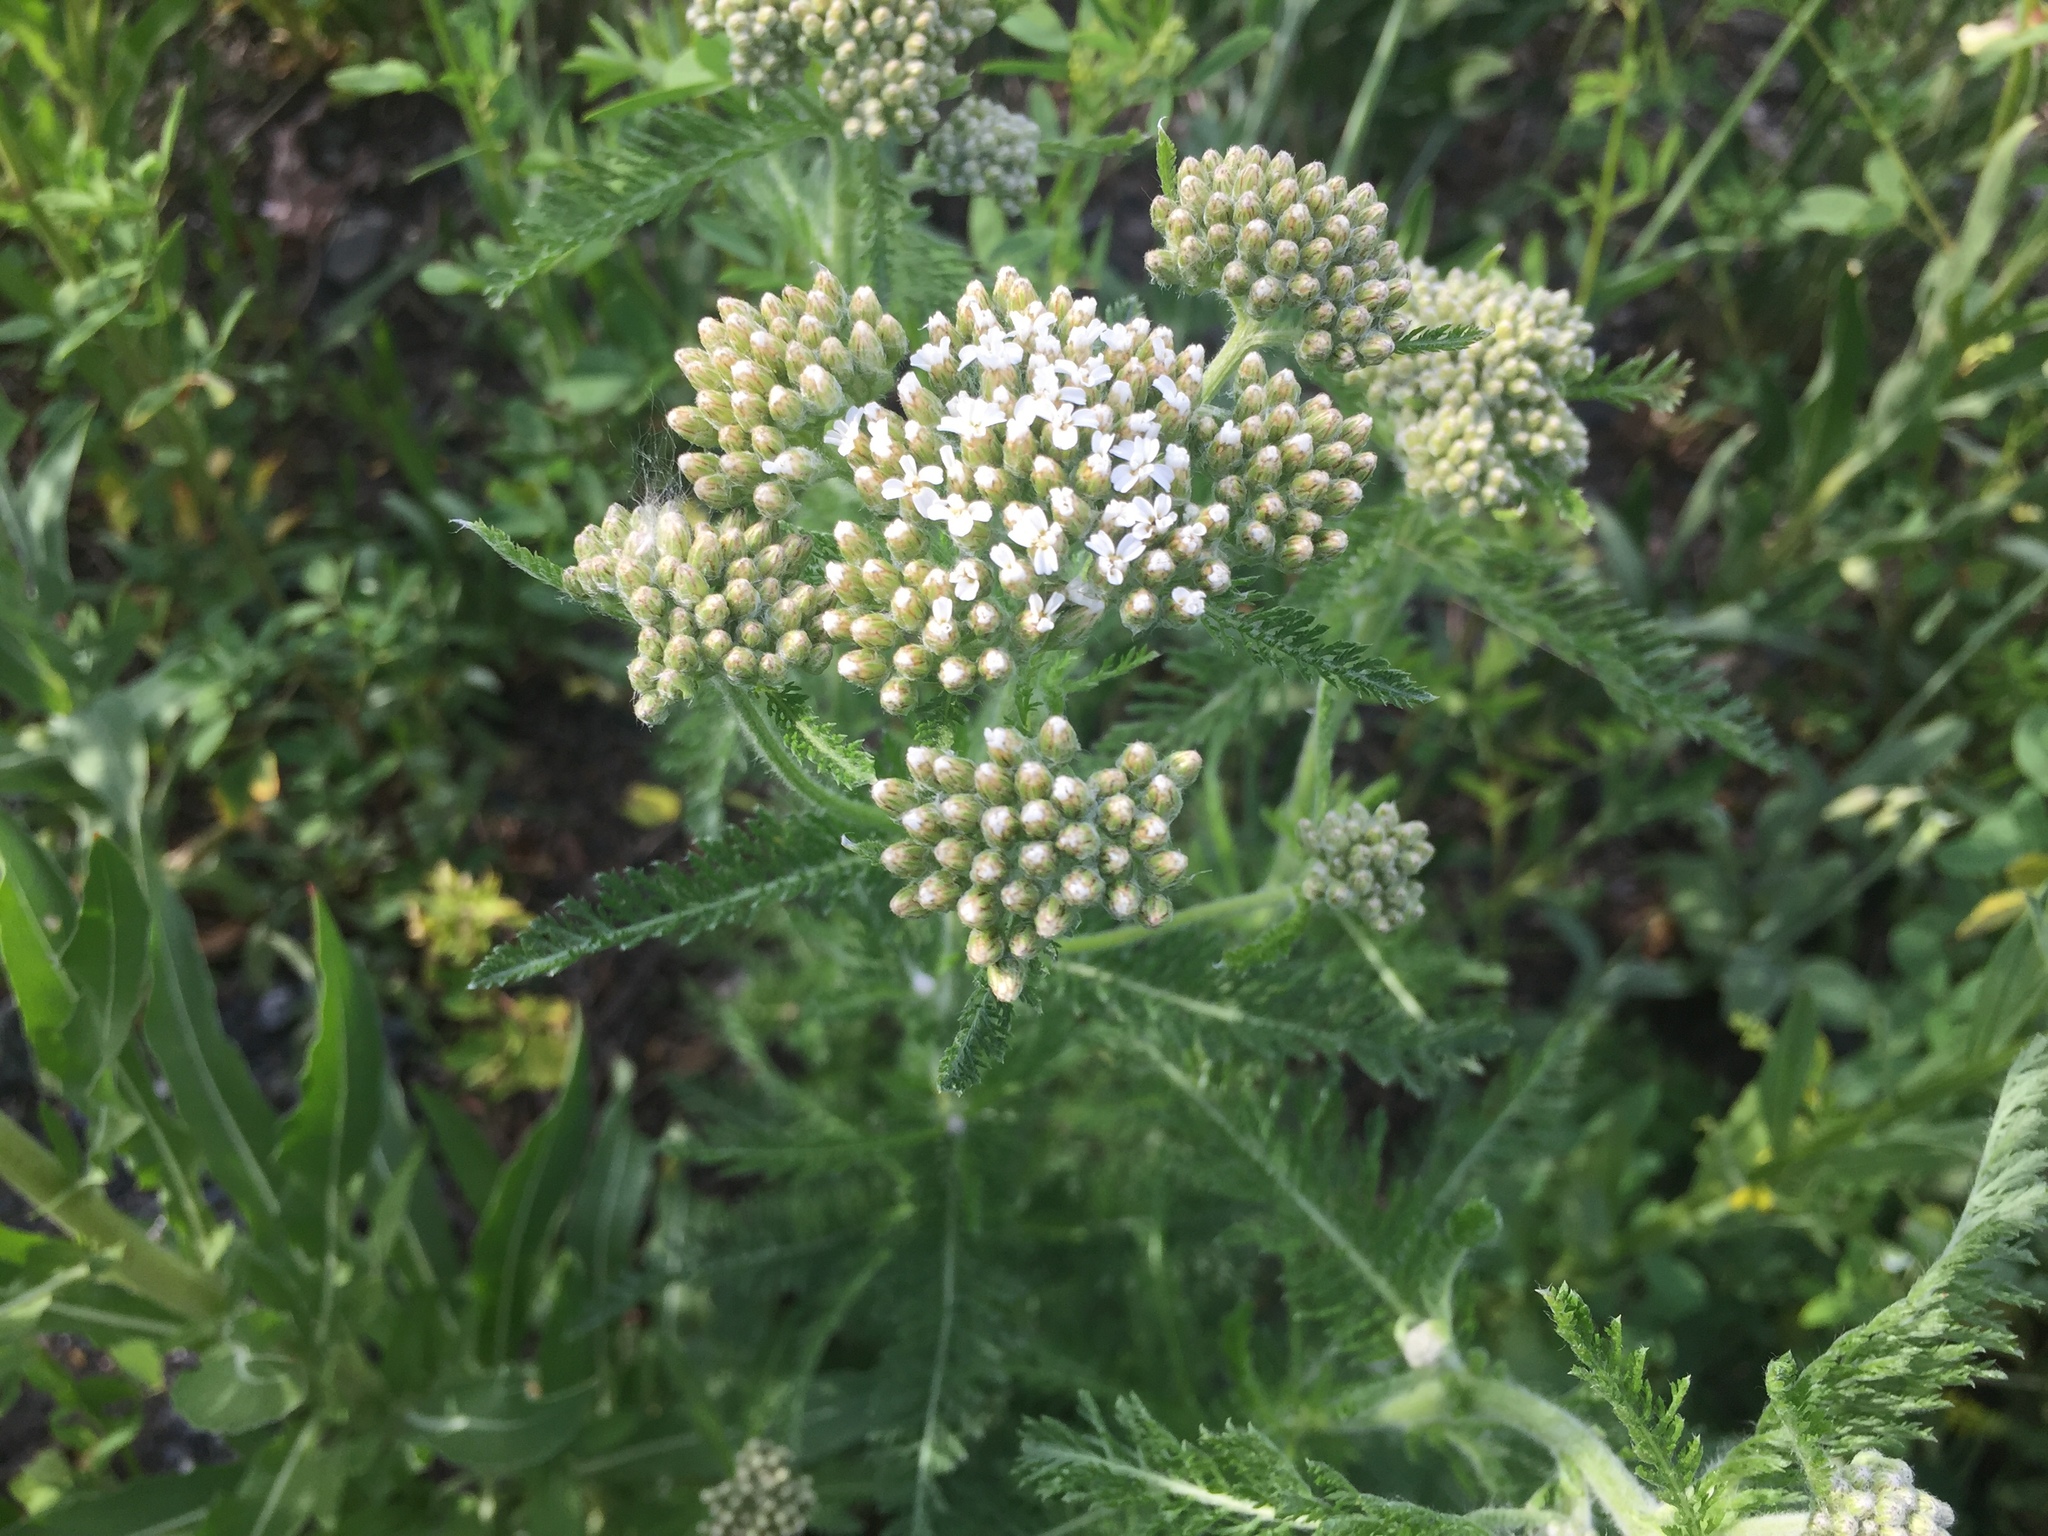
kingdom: Plantae
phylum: Tracheophyta
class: Magnoliopsida
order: Asterales
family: Asteraceae
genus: Achillea
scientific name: Achillea millefolium
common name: Yarrow
